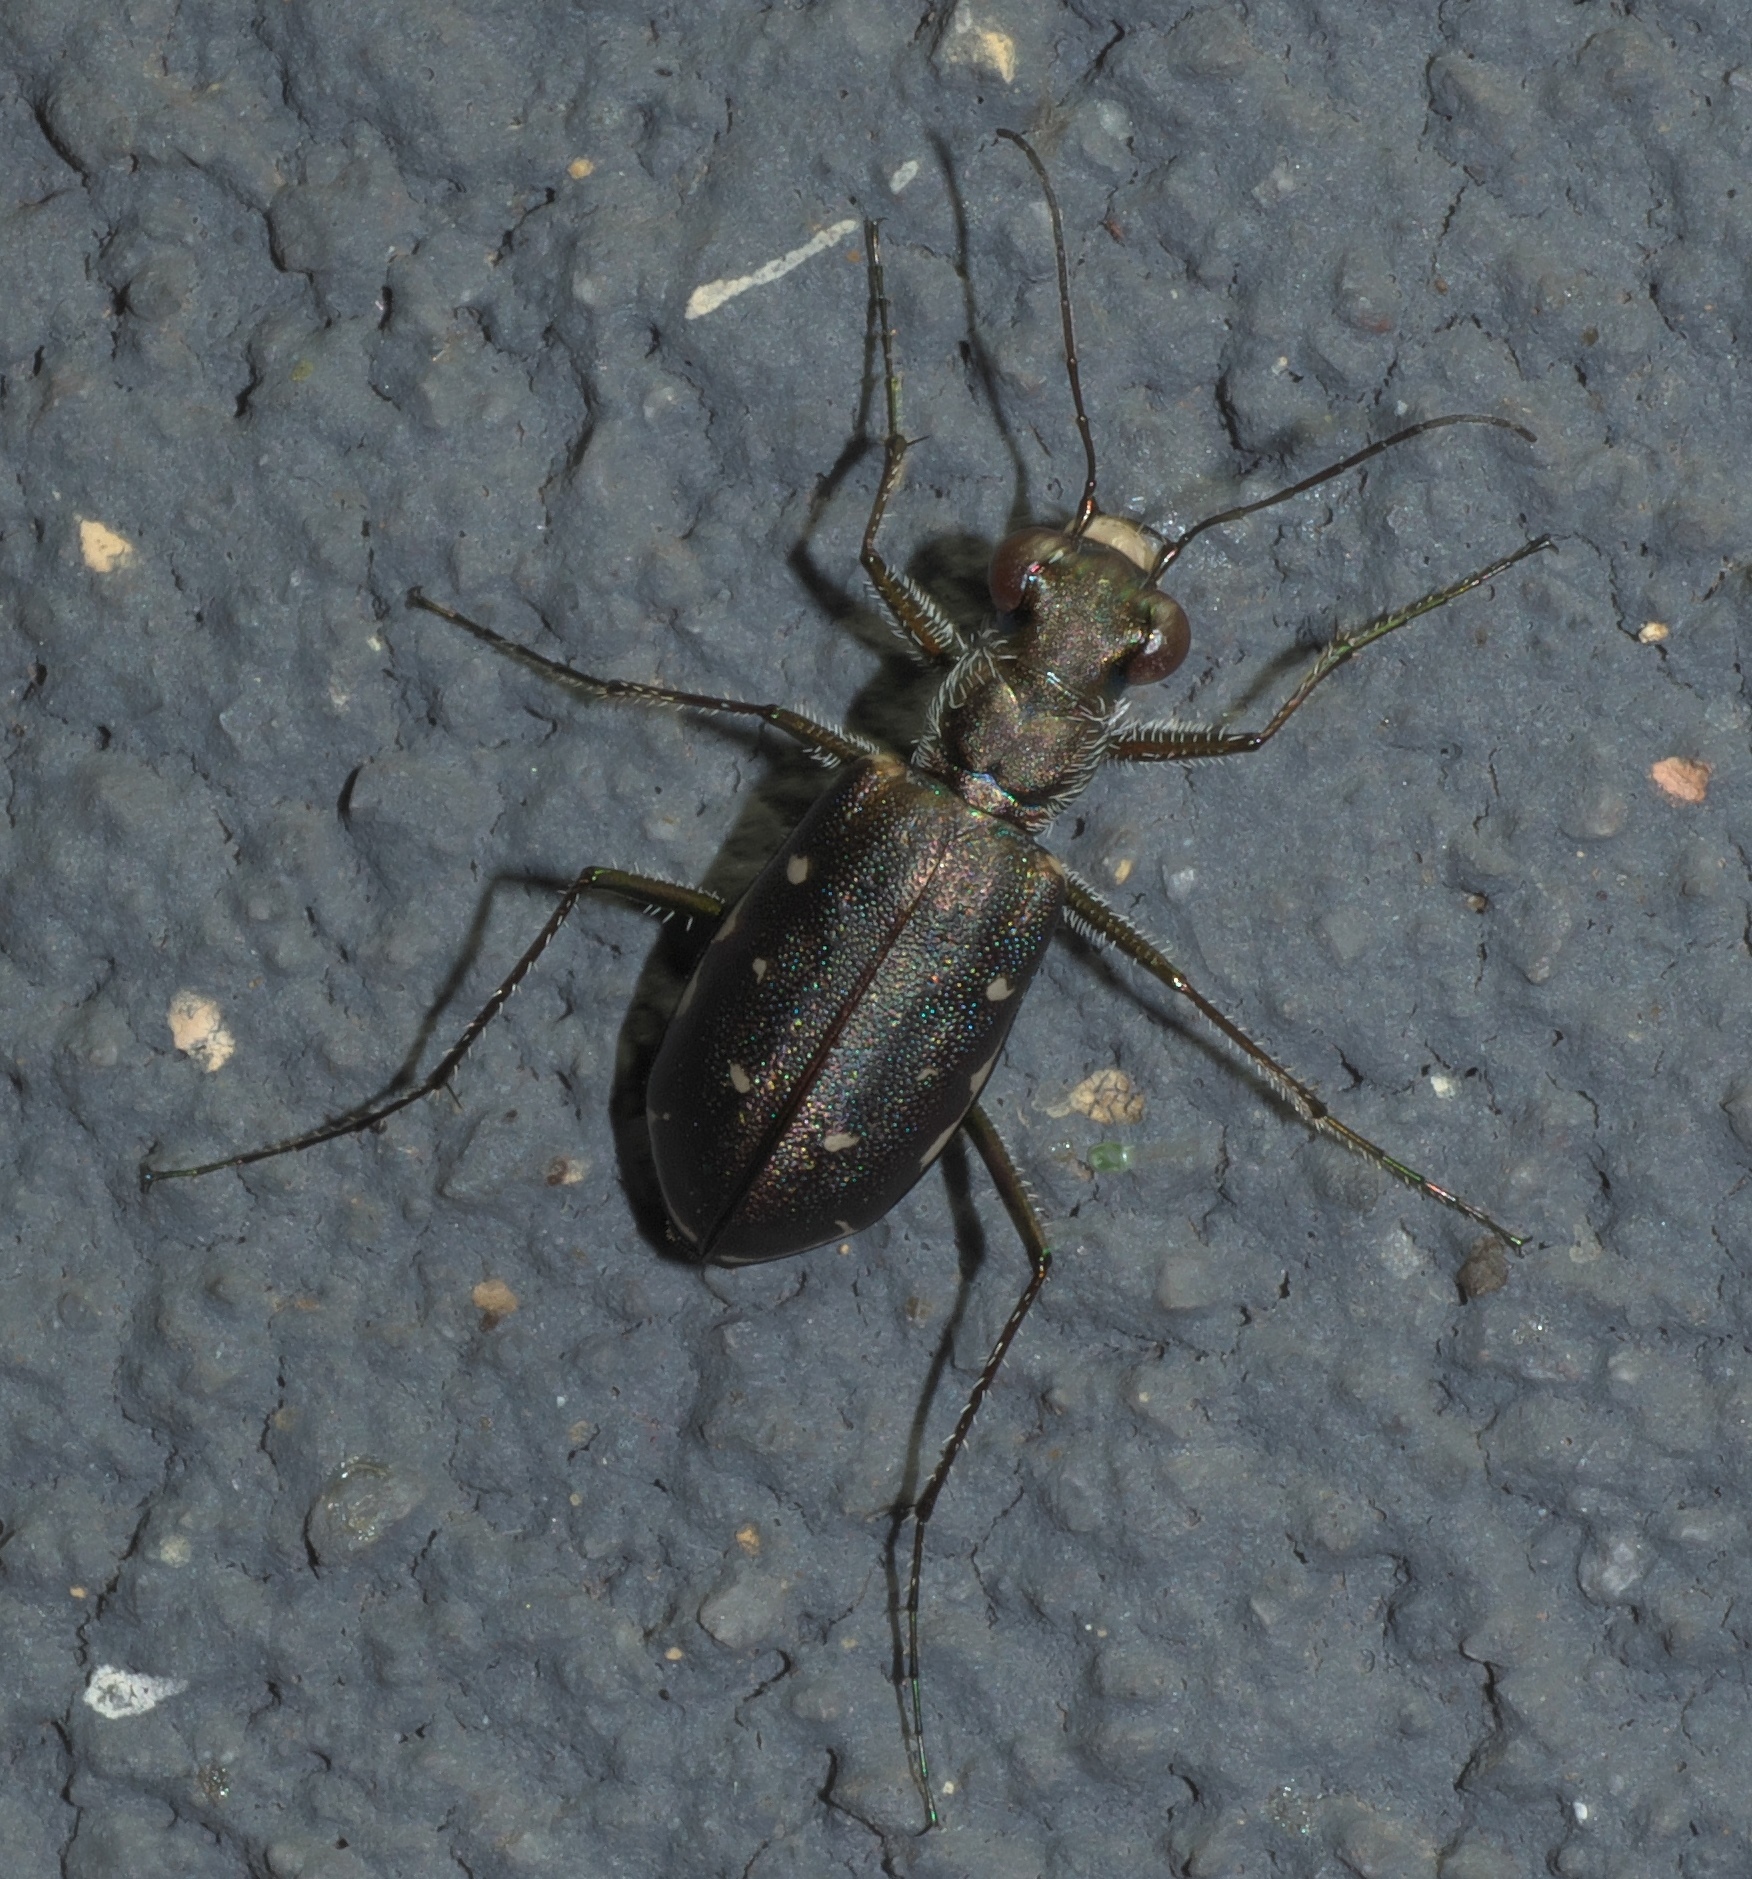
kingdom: Animalia
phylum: Arthropoda
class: Insecta
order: Coleoptera
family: Carabidae
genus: Cicindela
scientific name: Cicindela punctulata
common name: Punctured tiger beetle
